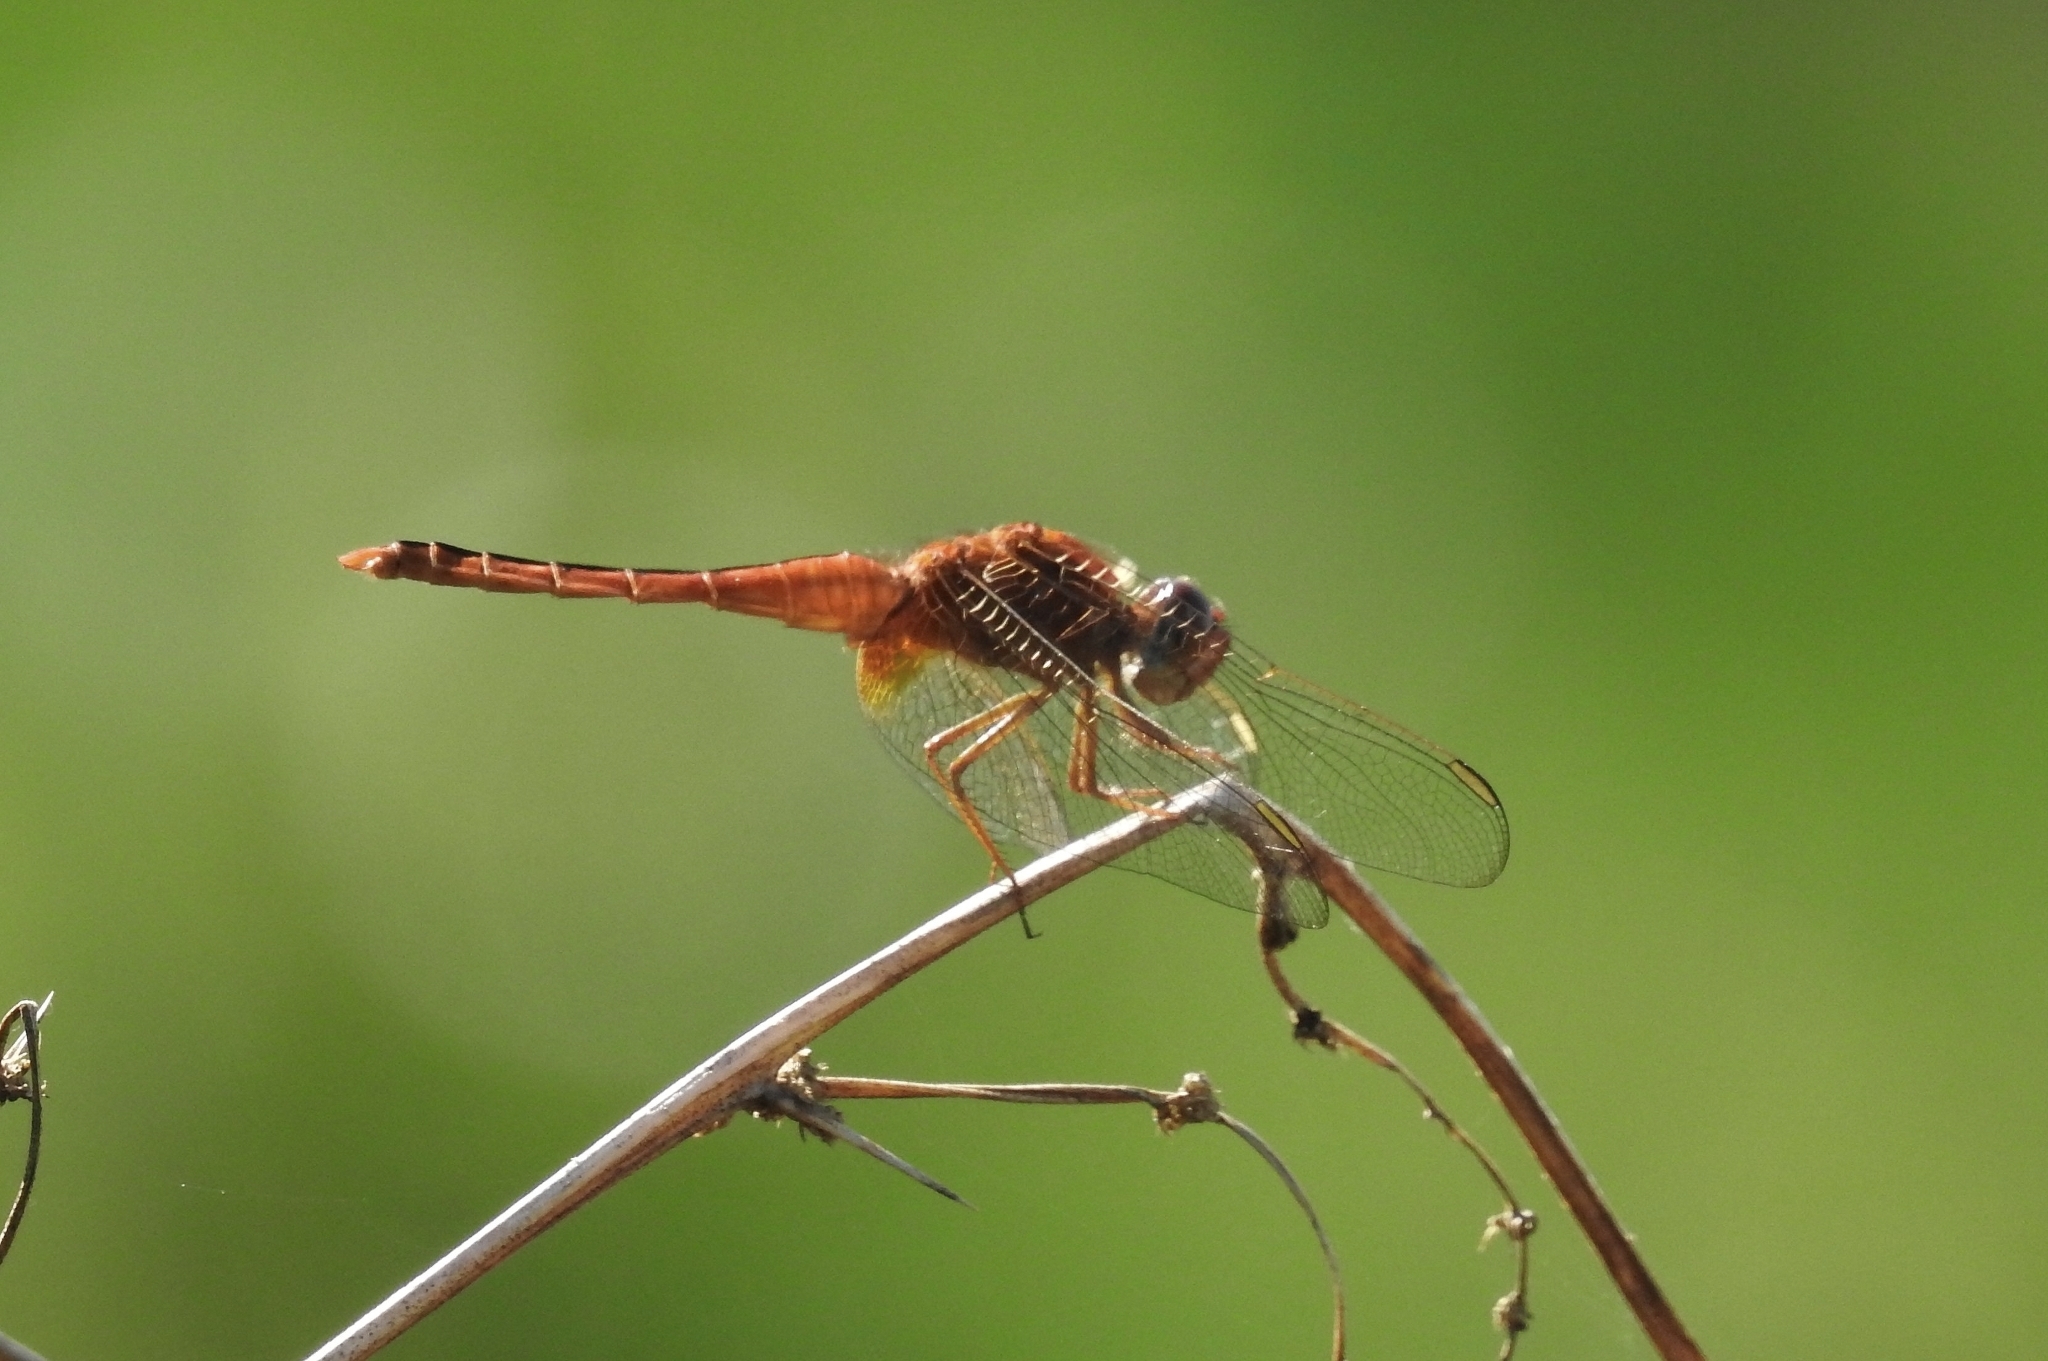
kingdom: Animalia
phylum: Arthropoda
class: Insecta
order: Odonata
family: Libellulidae
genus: Crocothemis
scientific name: Crocothemis servilia
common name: Scarlet skimmer
